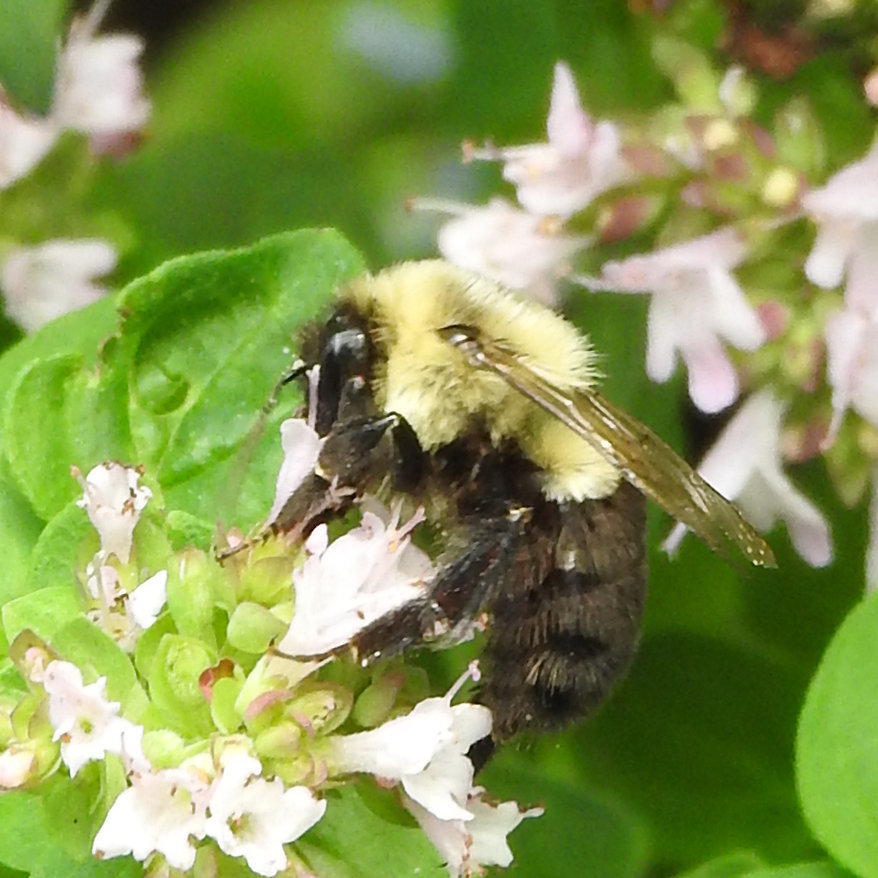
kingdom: Animalia
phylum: Arthropoda
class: Insecta
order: Hymenoptera
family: Apidae
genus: Bombus
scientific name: Bombus impatiens
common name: Common eastern bumble bee
